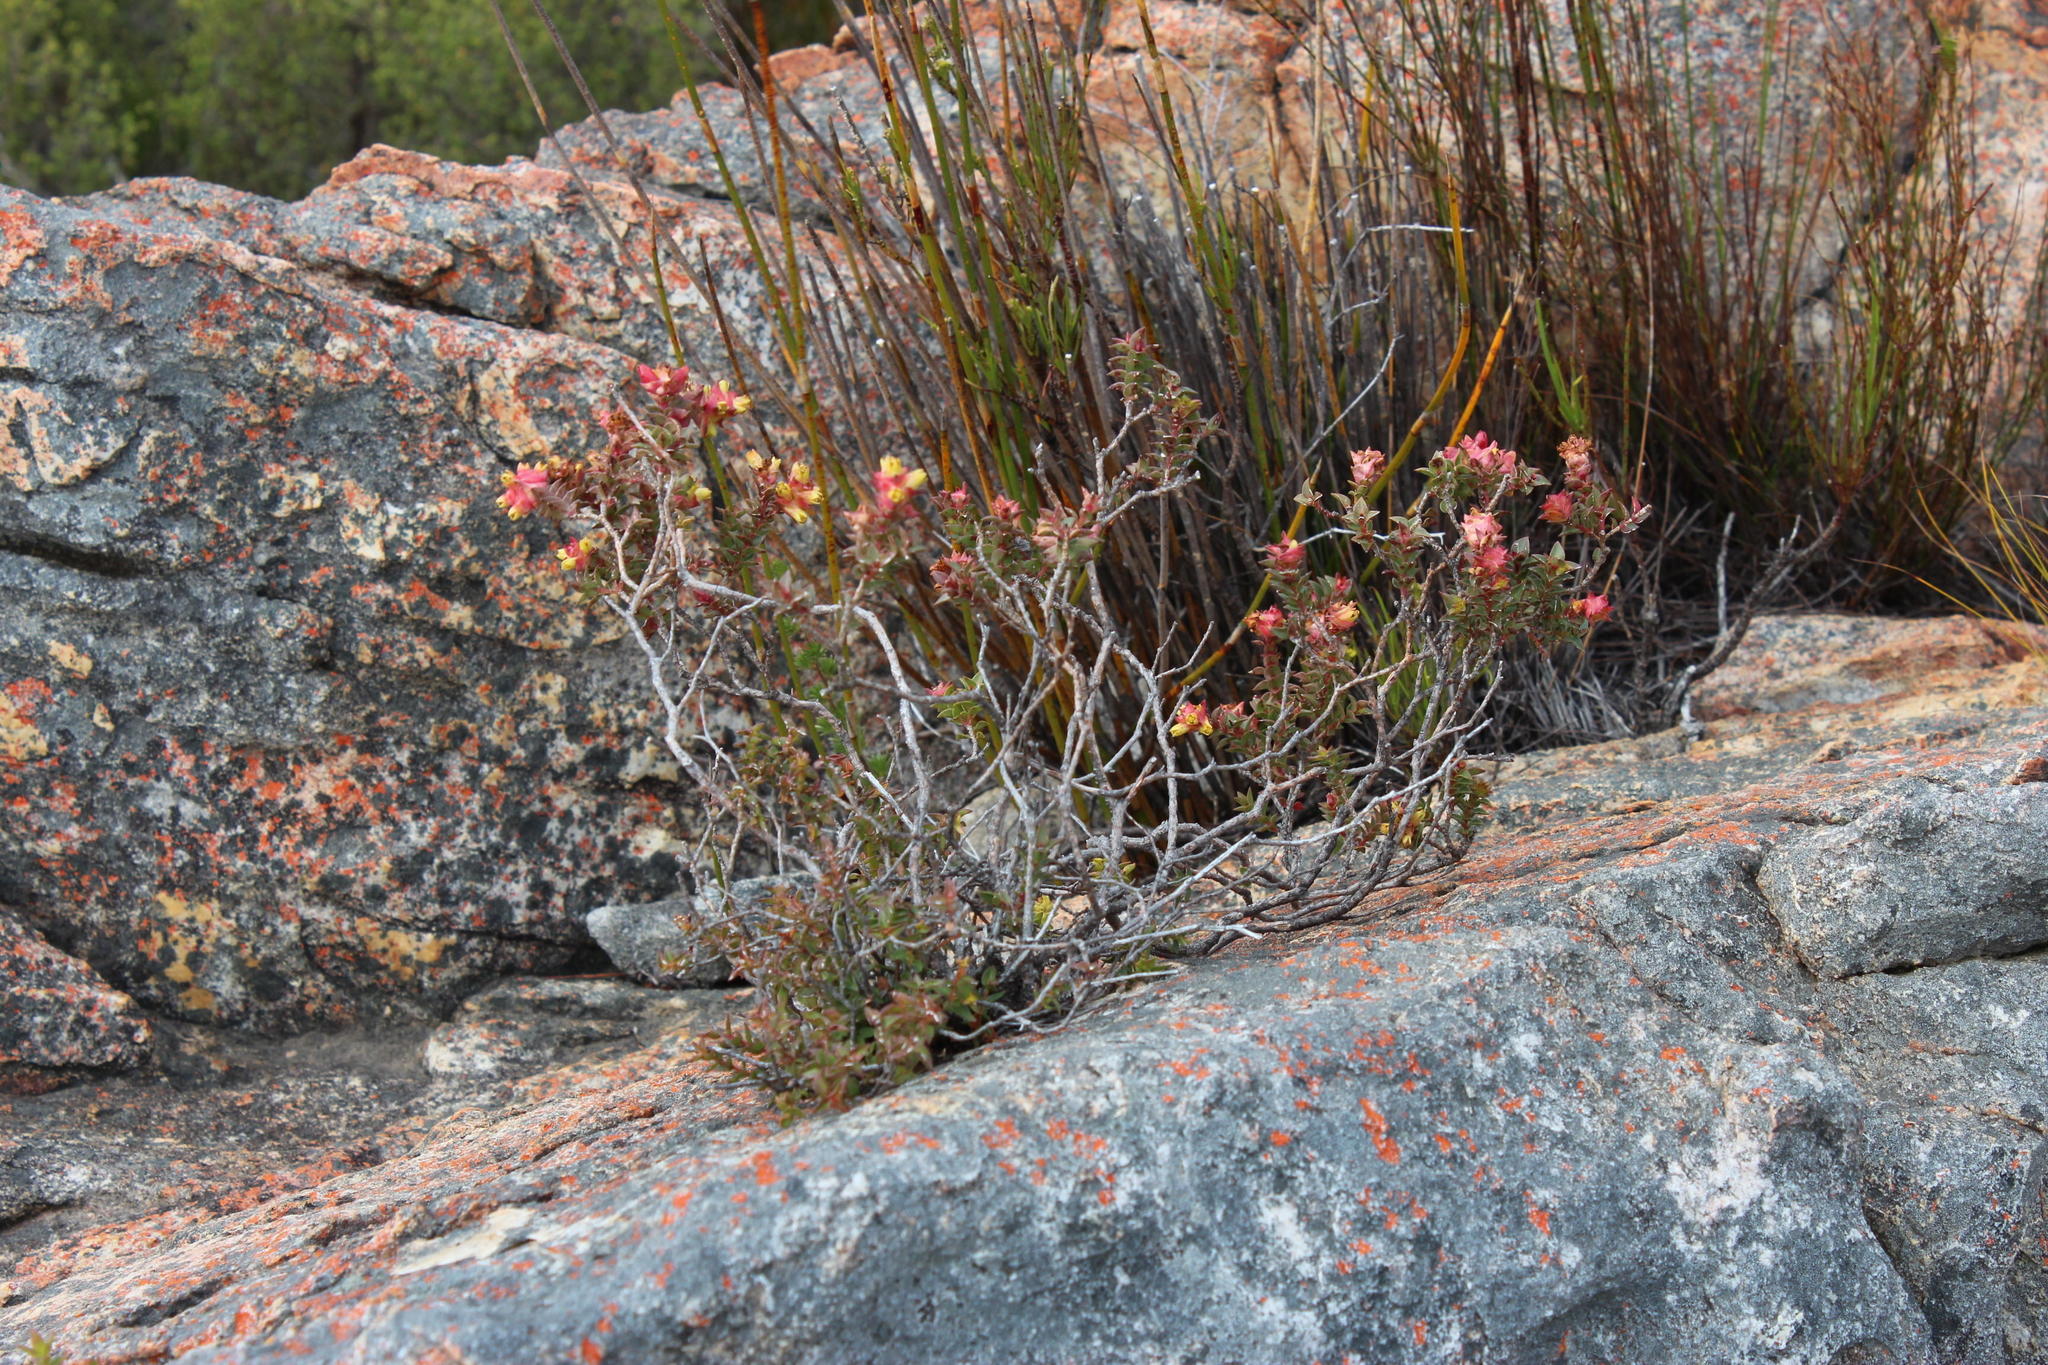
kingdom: Plantae
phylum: Tracheophyta
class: Magnoliopsida
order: Myrtales
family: Penaeaceae
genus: Penaea
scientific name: Penaea mucronata
